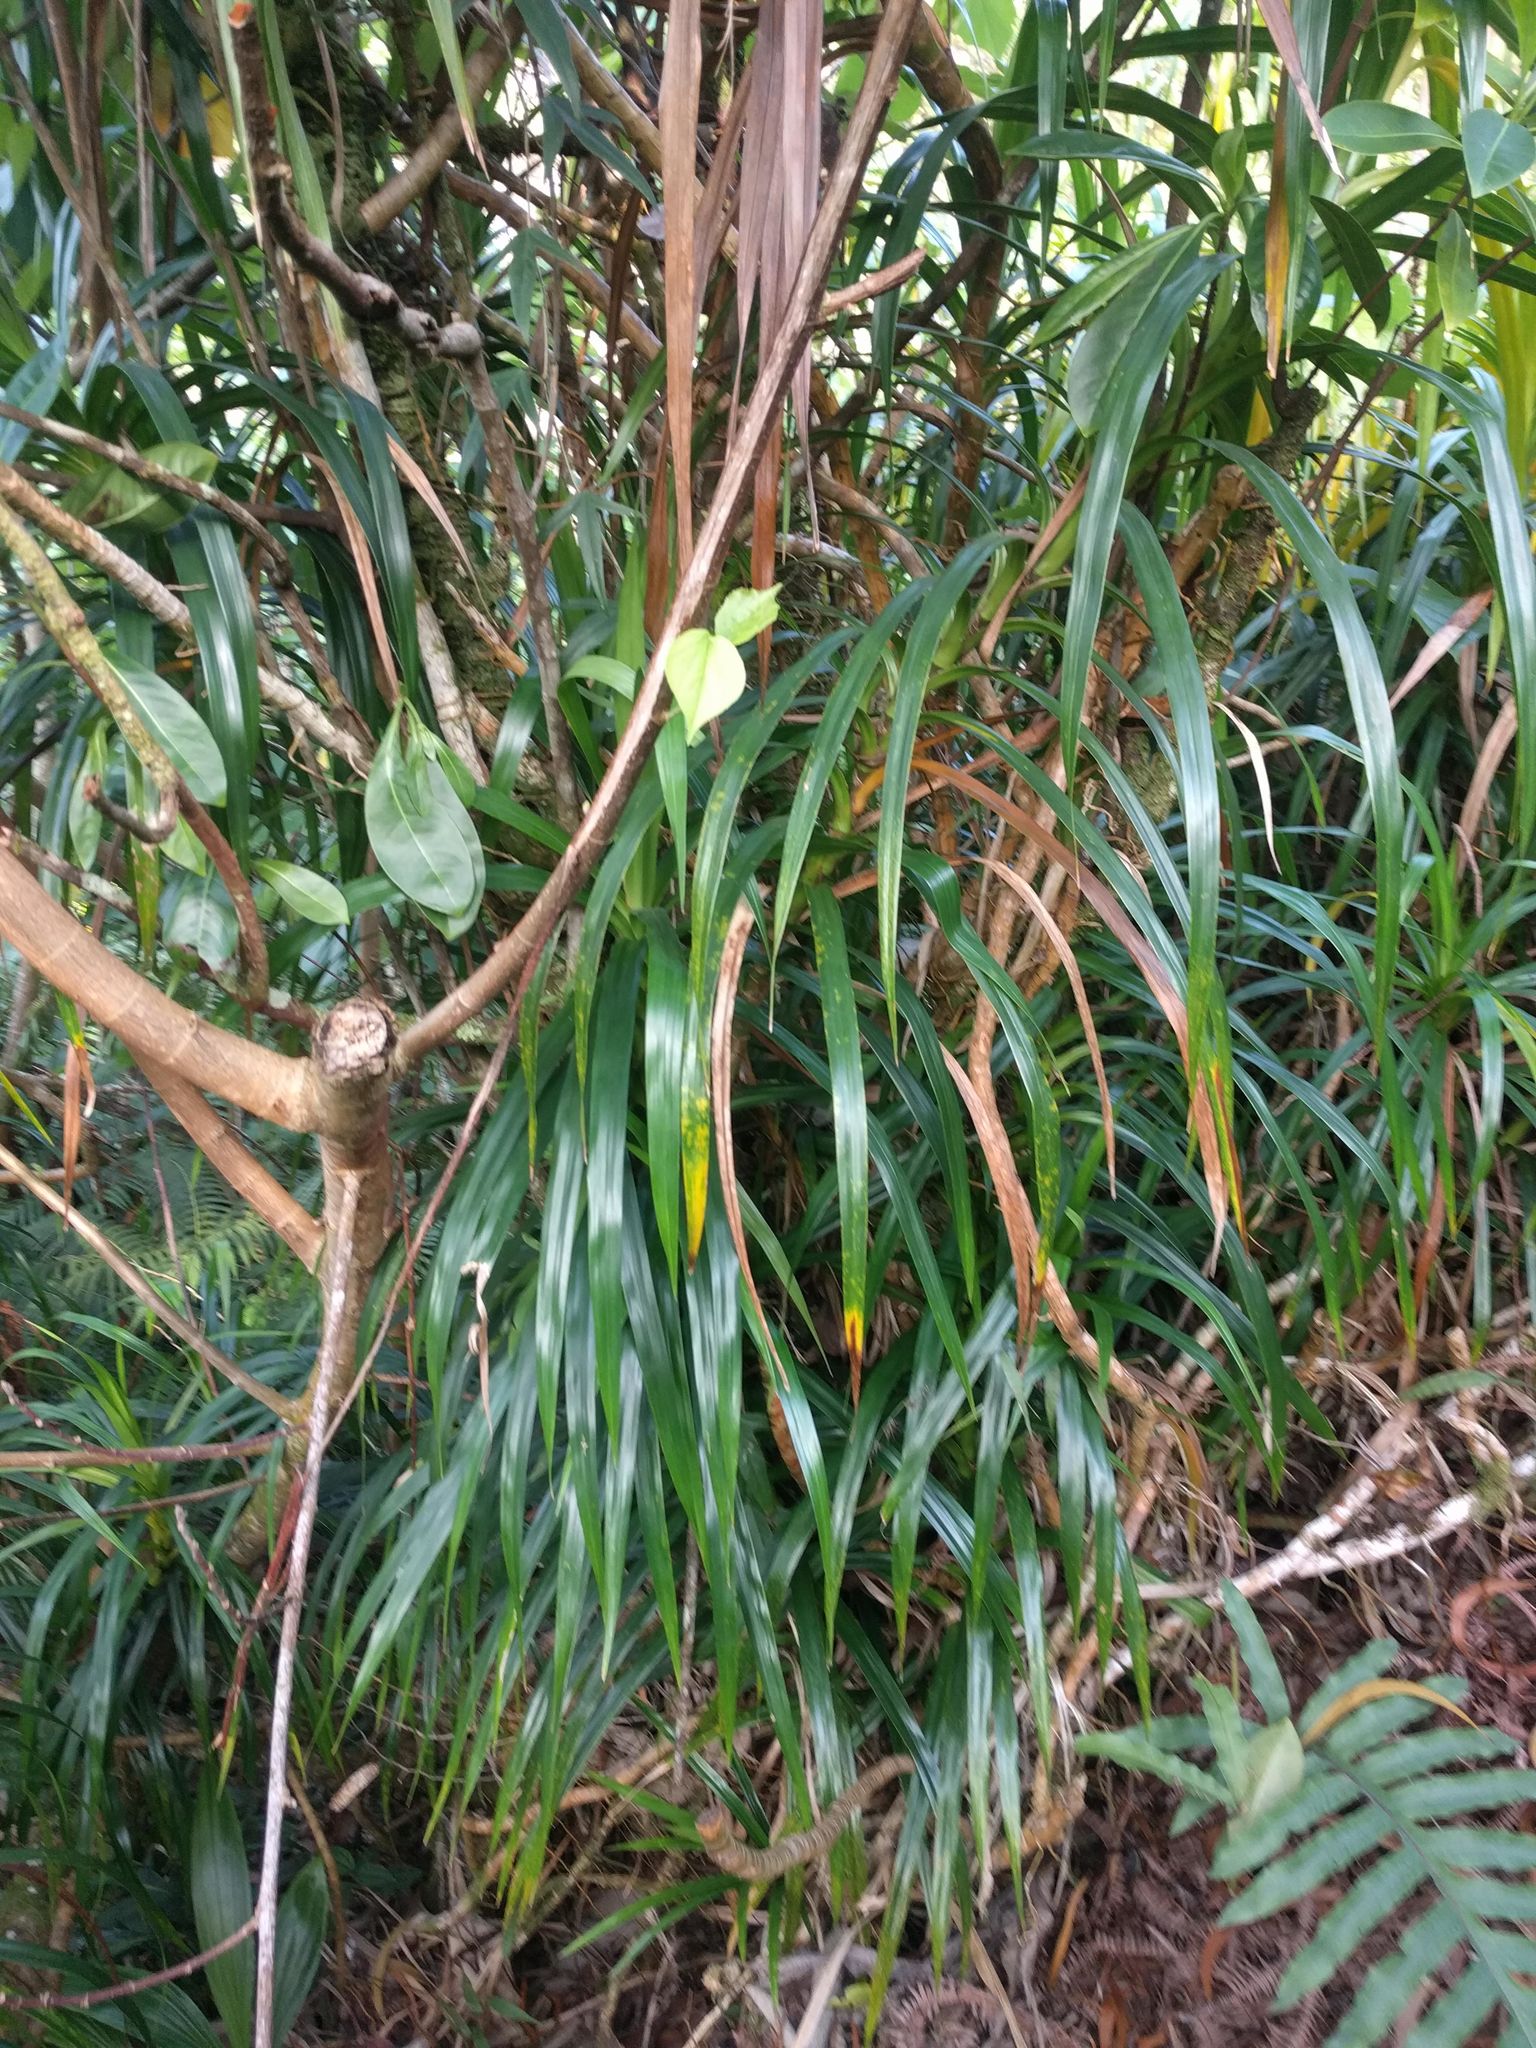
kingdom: Plantae
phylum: Tracheophyta
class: Liliopsida
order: Pandanales
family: Pandanaceae
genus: Freycinetia
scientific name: Freycinetia arborea
